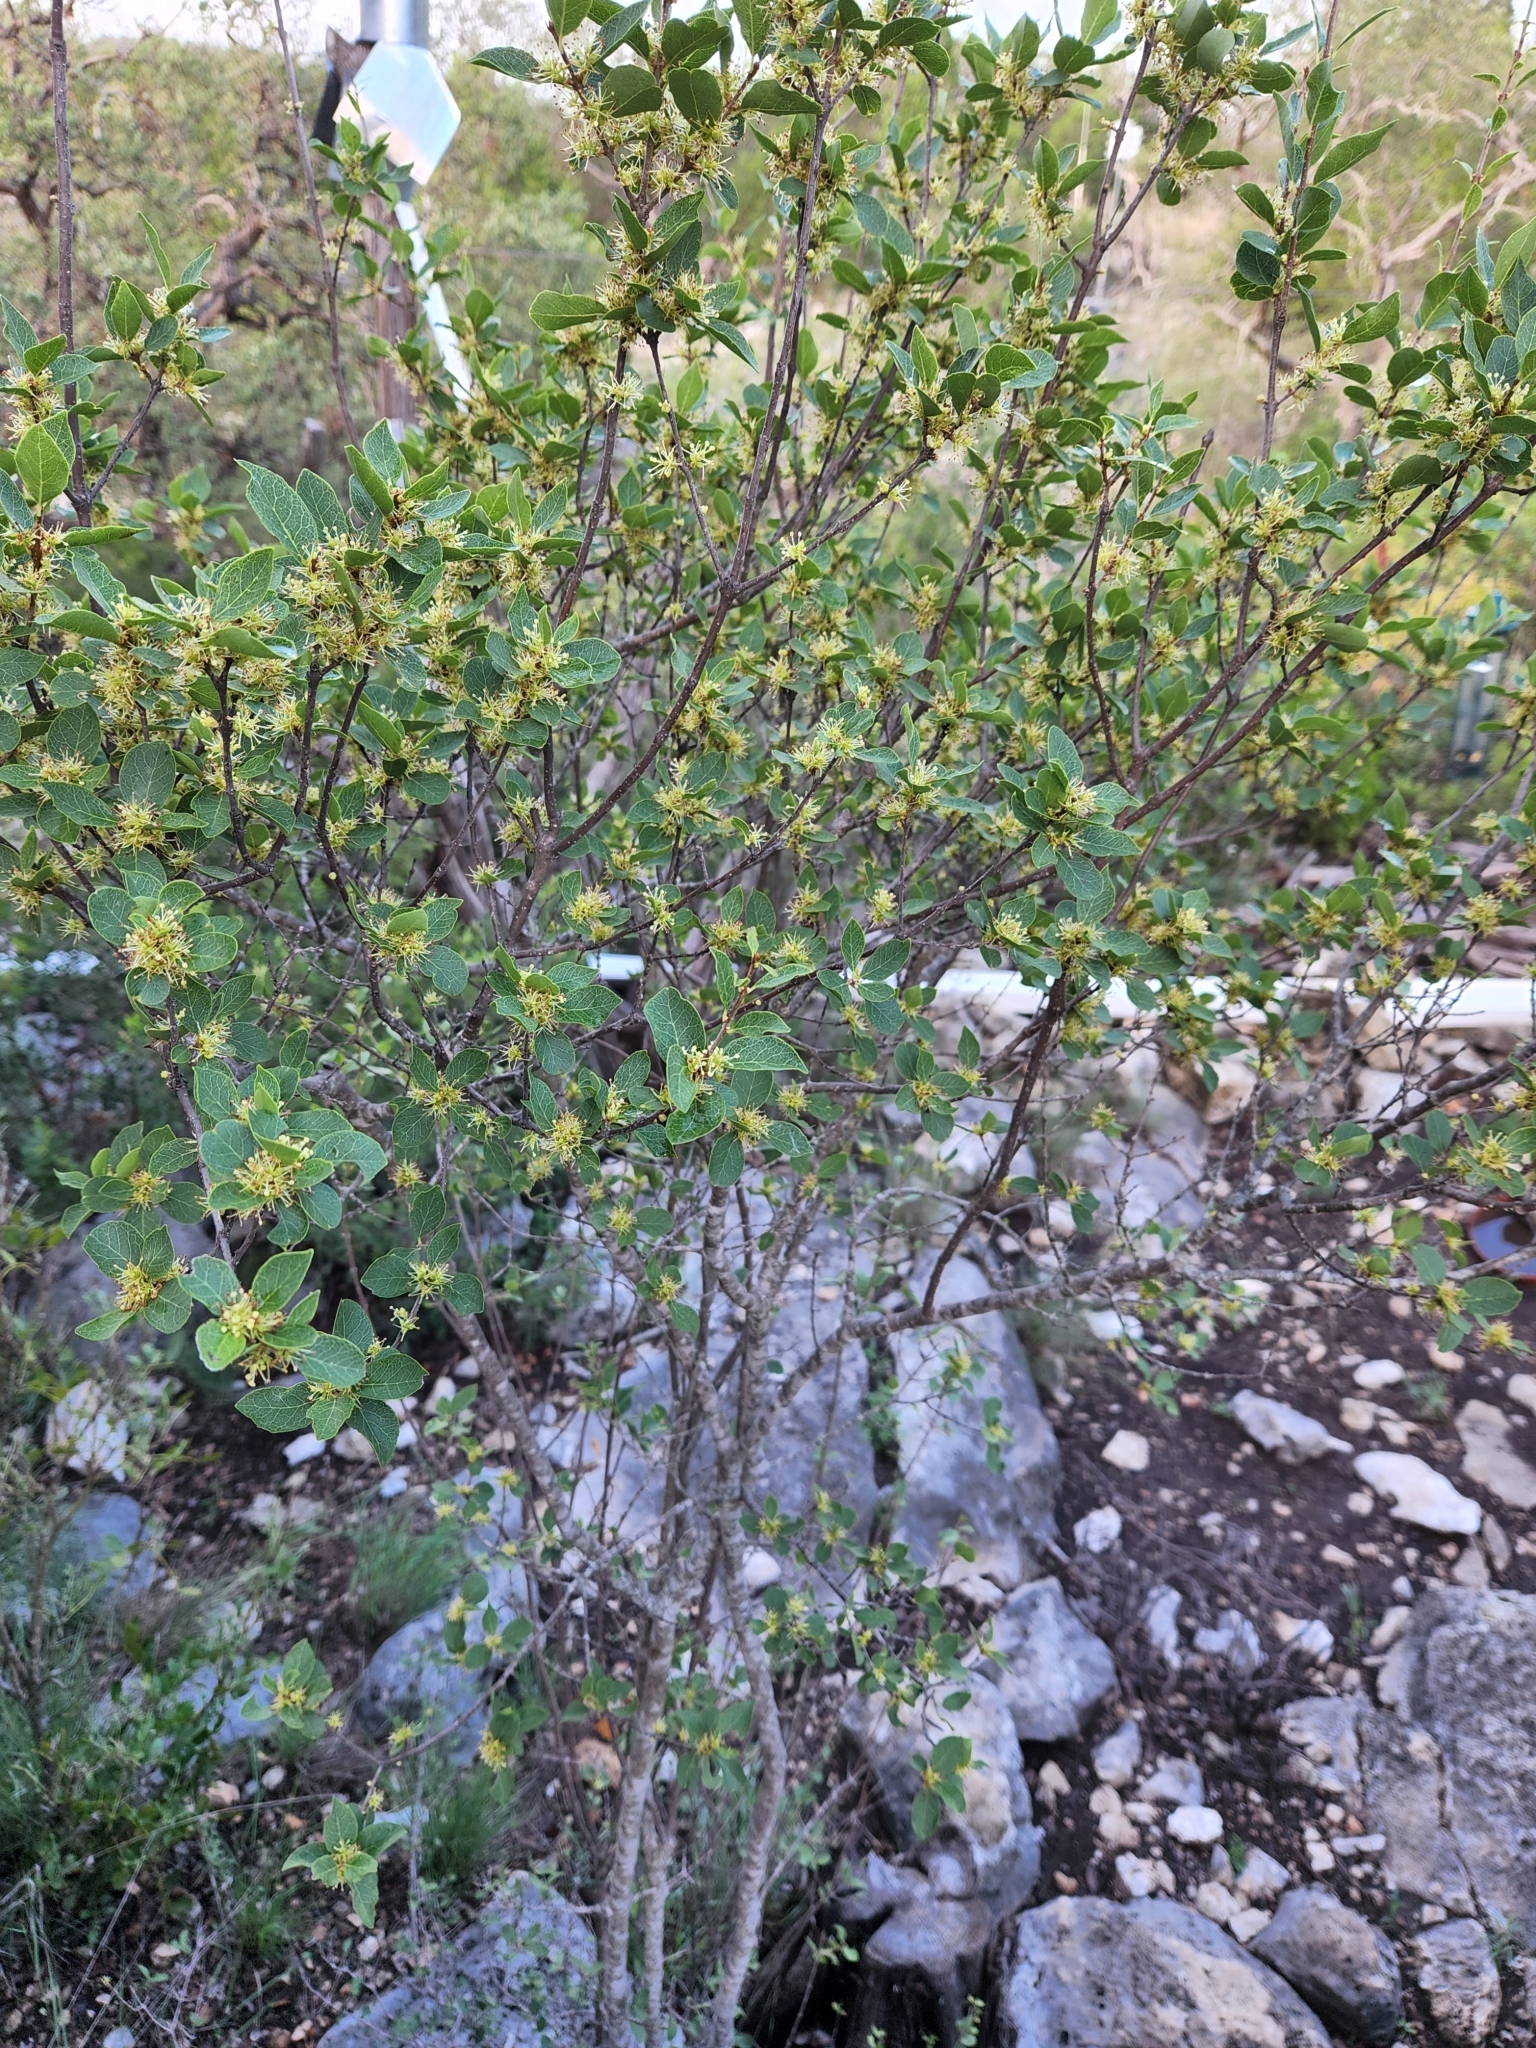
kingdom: Plantae
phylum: Tracheophyta
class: Magnoliopsida
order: Lamiales
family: Oleaceae
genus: Forestiera
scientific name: Forestiera reticulata
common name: Netleaf swamp-privet
